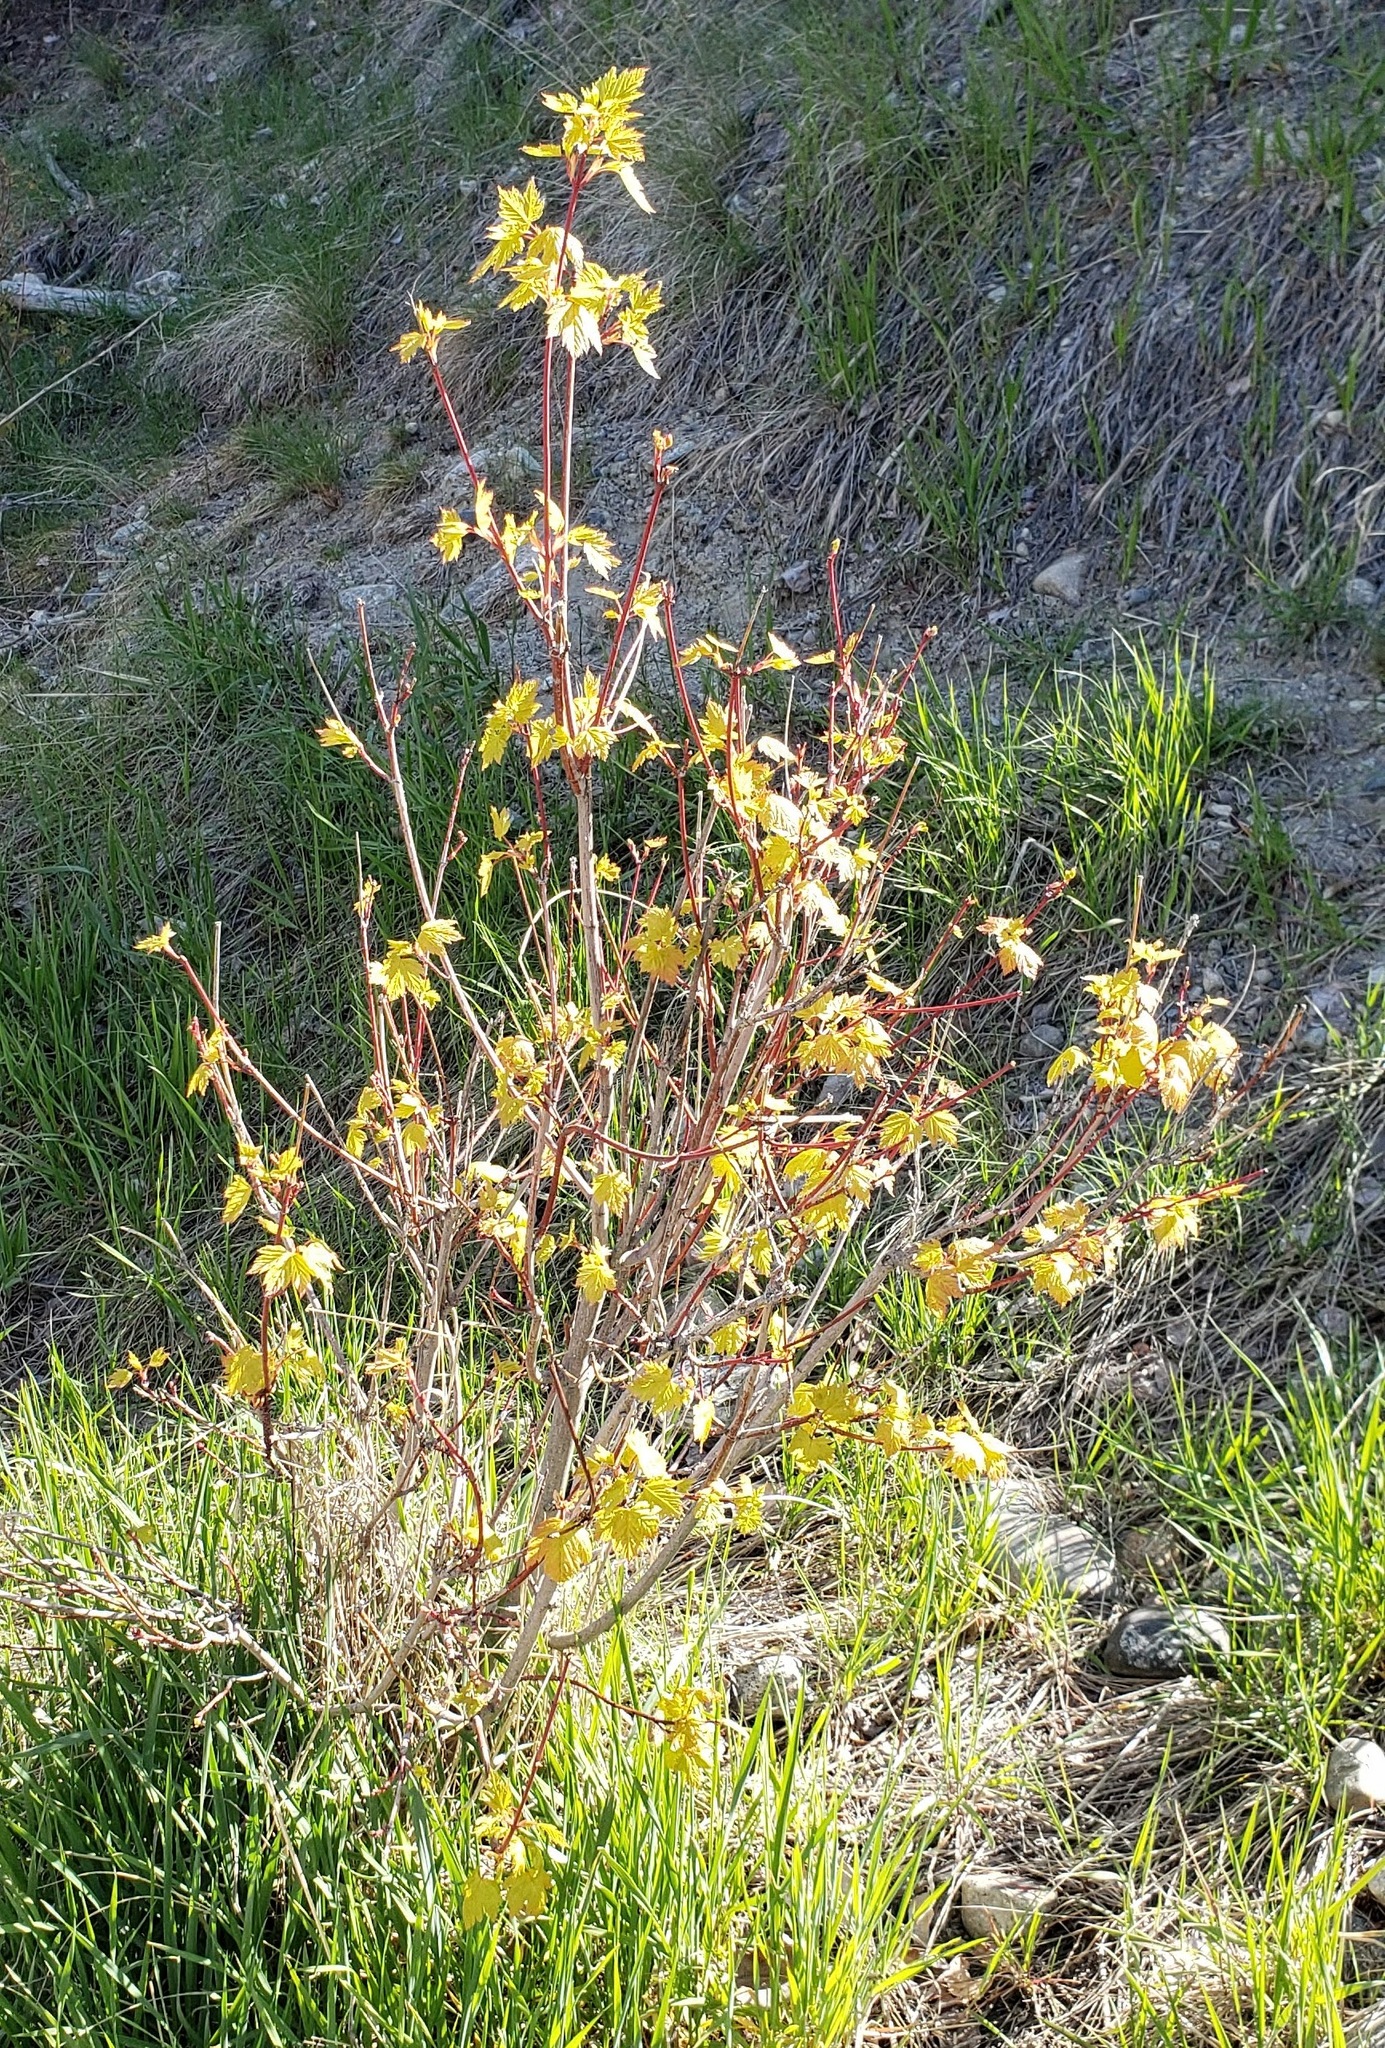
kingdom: Plantae
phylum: Tracheophyta
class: Magnoliopsida
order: Sapindales
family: Sapindaceae
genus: Acer
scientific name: Acer glabrum
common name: Rocky mountain maple
